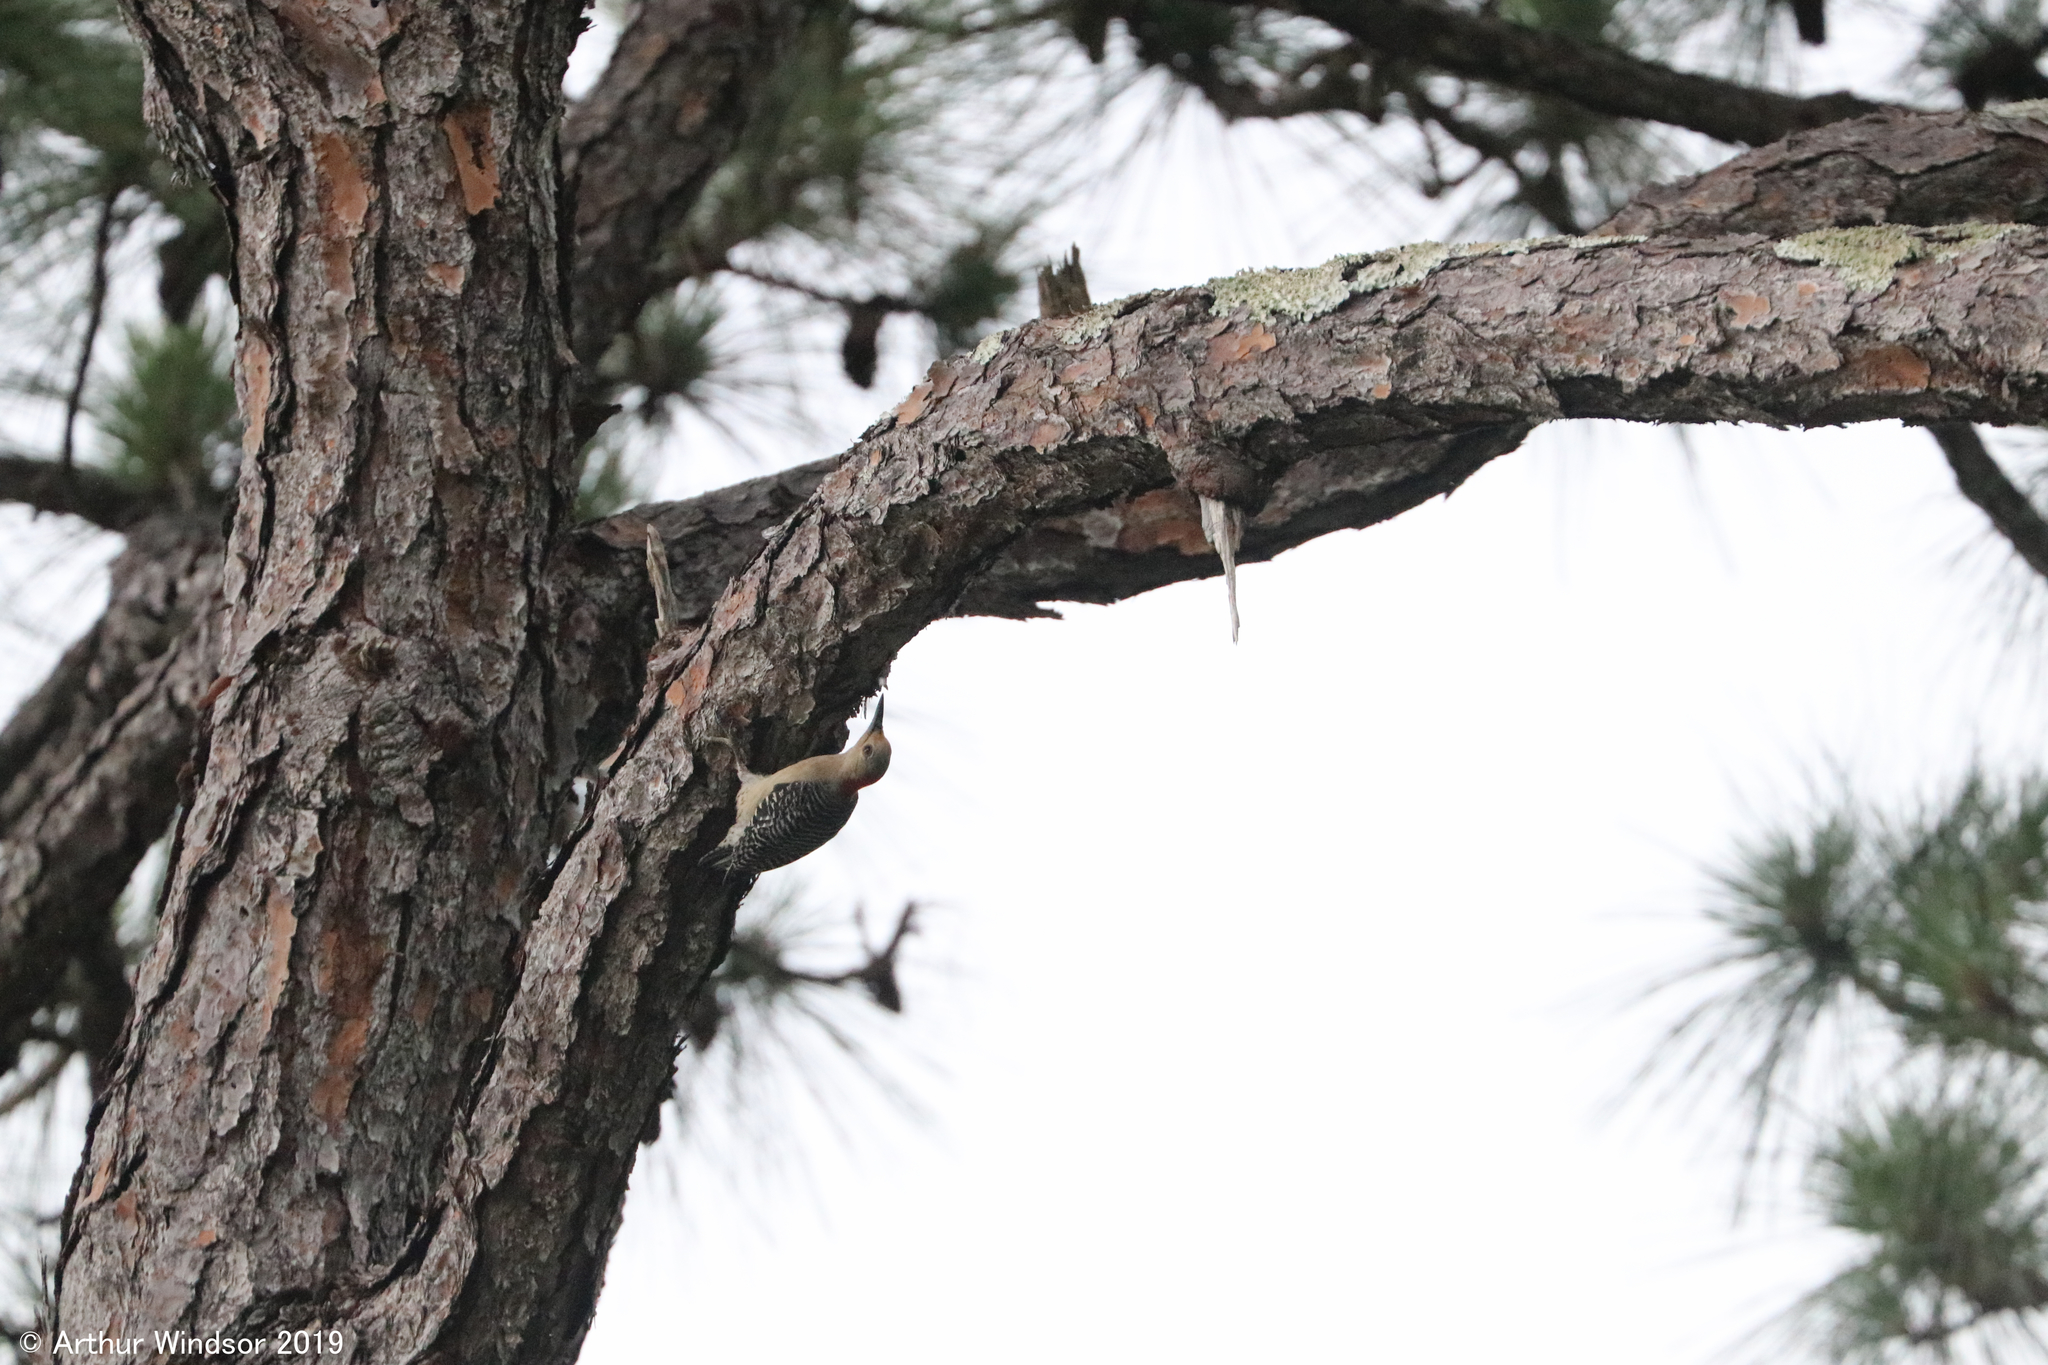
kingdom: Animalia
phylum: Chordata
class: Aves
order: Piciformes
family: Picidae
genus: Melanerpes
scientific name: Melanerpes carolinus
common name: Red-bellied woodpecker
